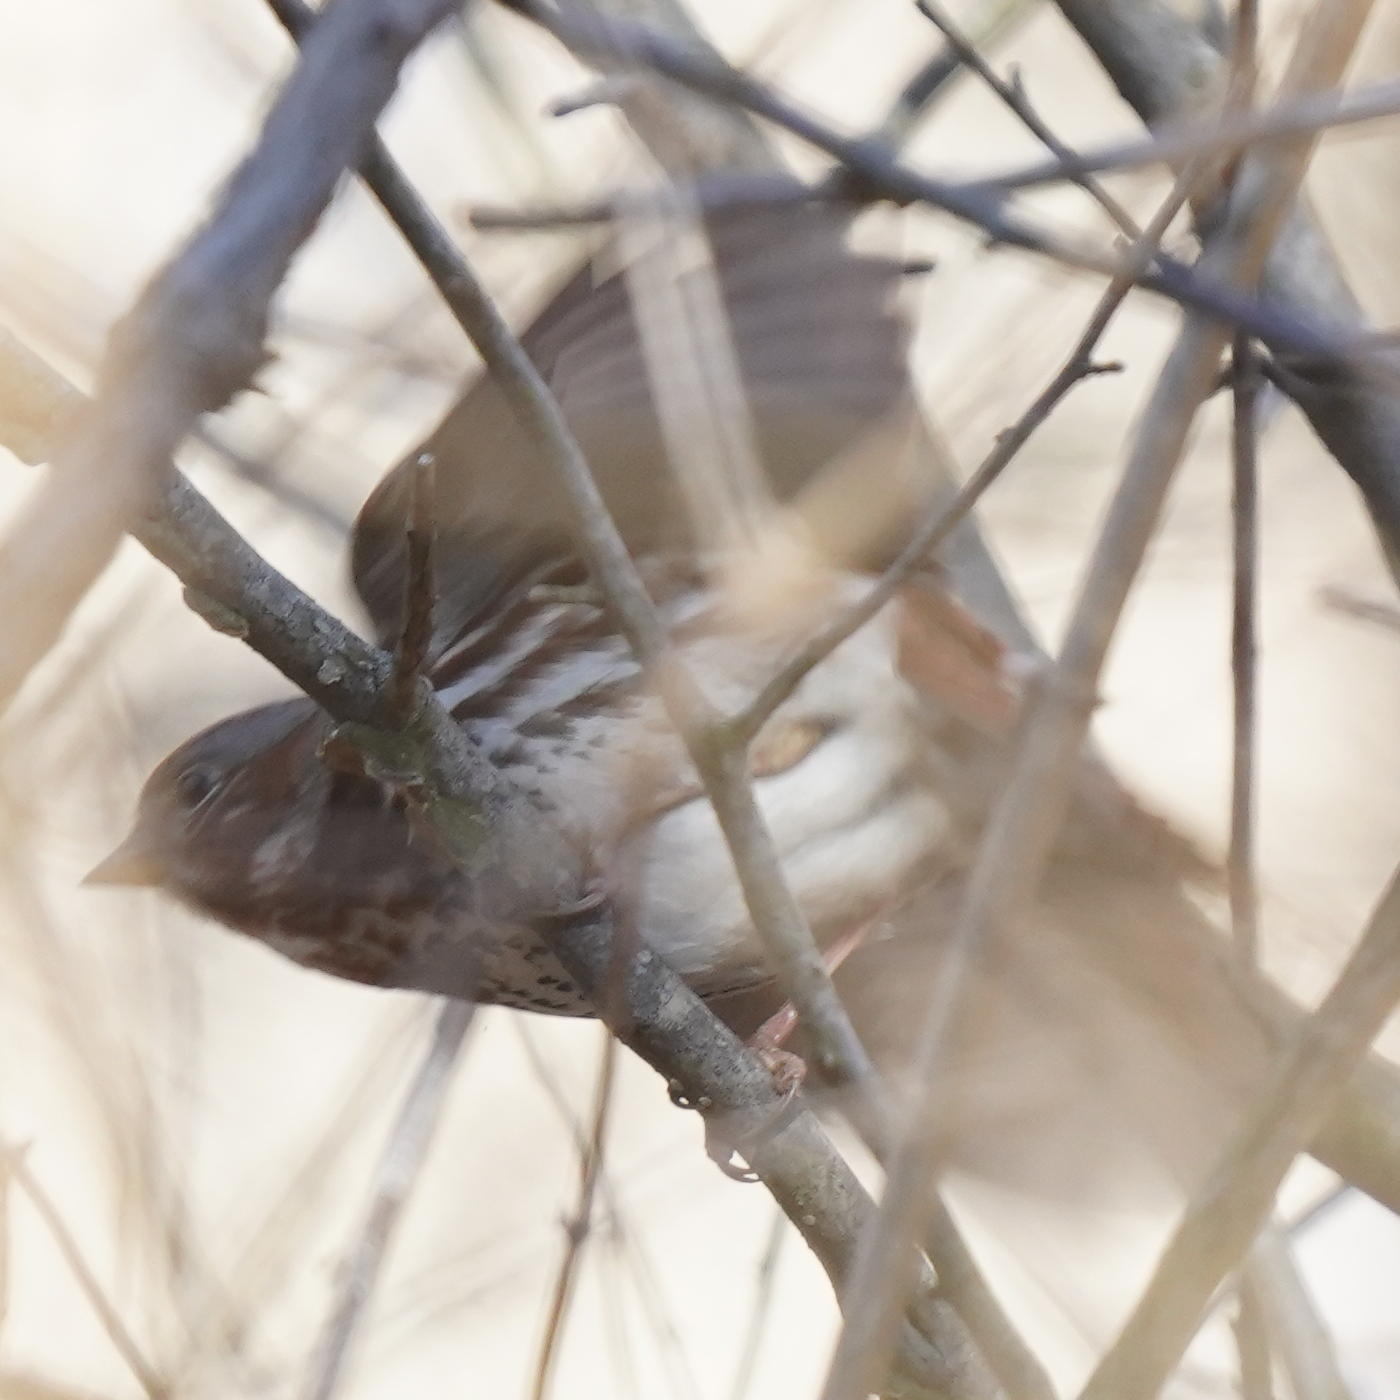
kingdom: Animalia
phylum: Chordata
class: Aves
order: Passeriformes
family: Passerellidae
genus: Passerella
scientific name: Passerella iliaca
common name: Fox sparrow
